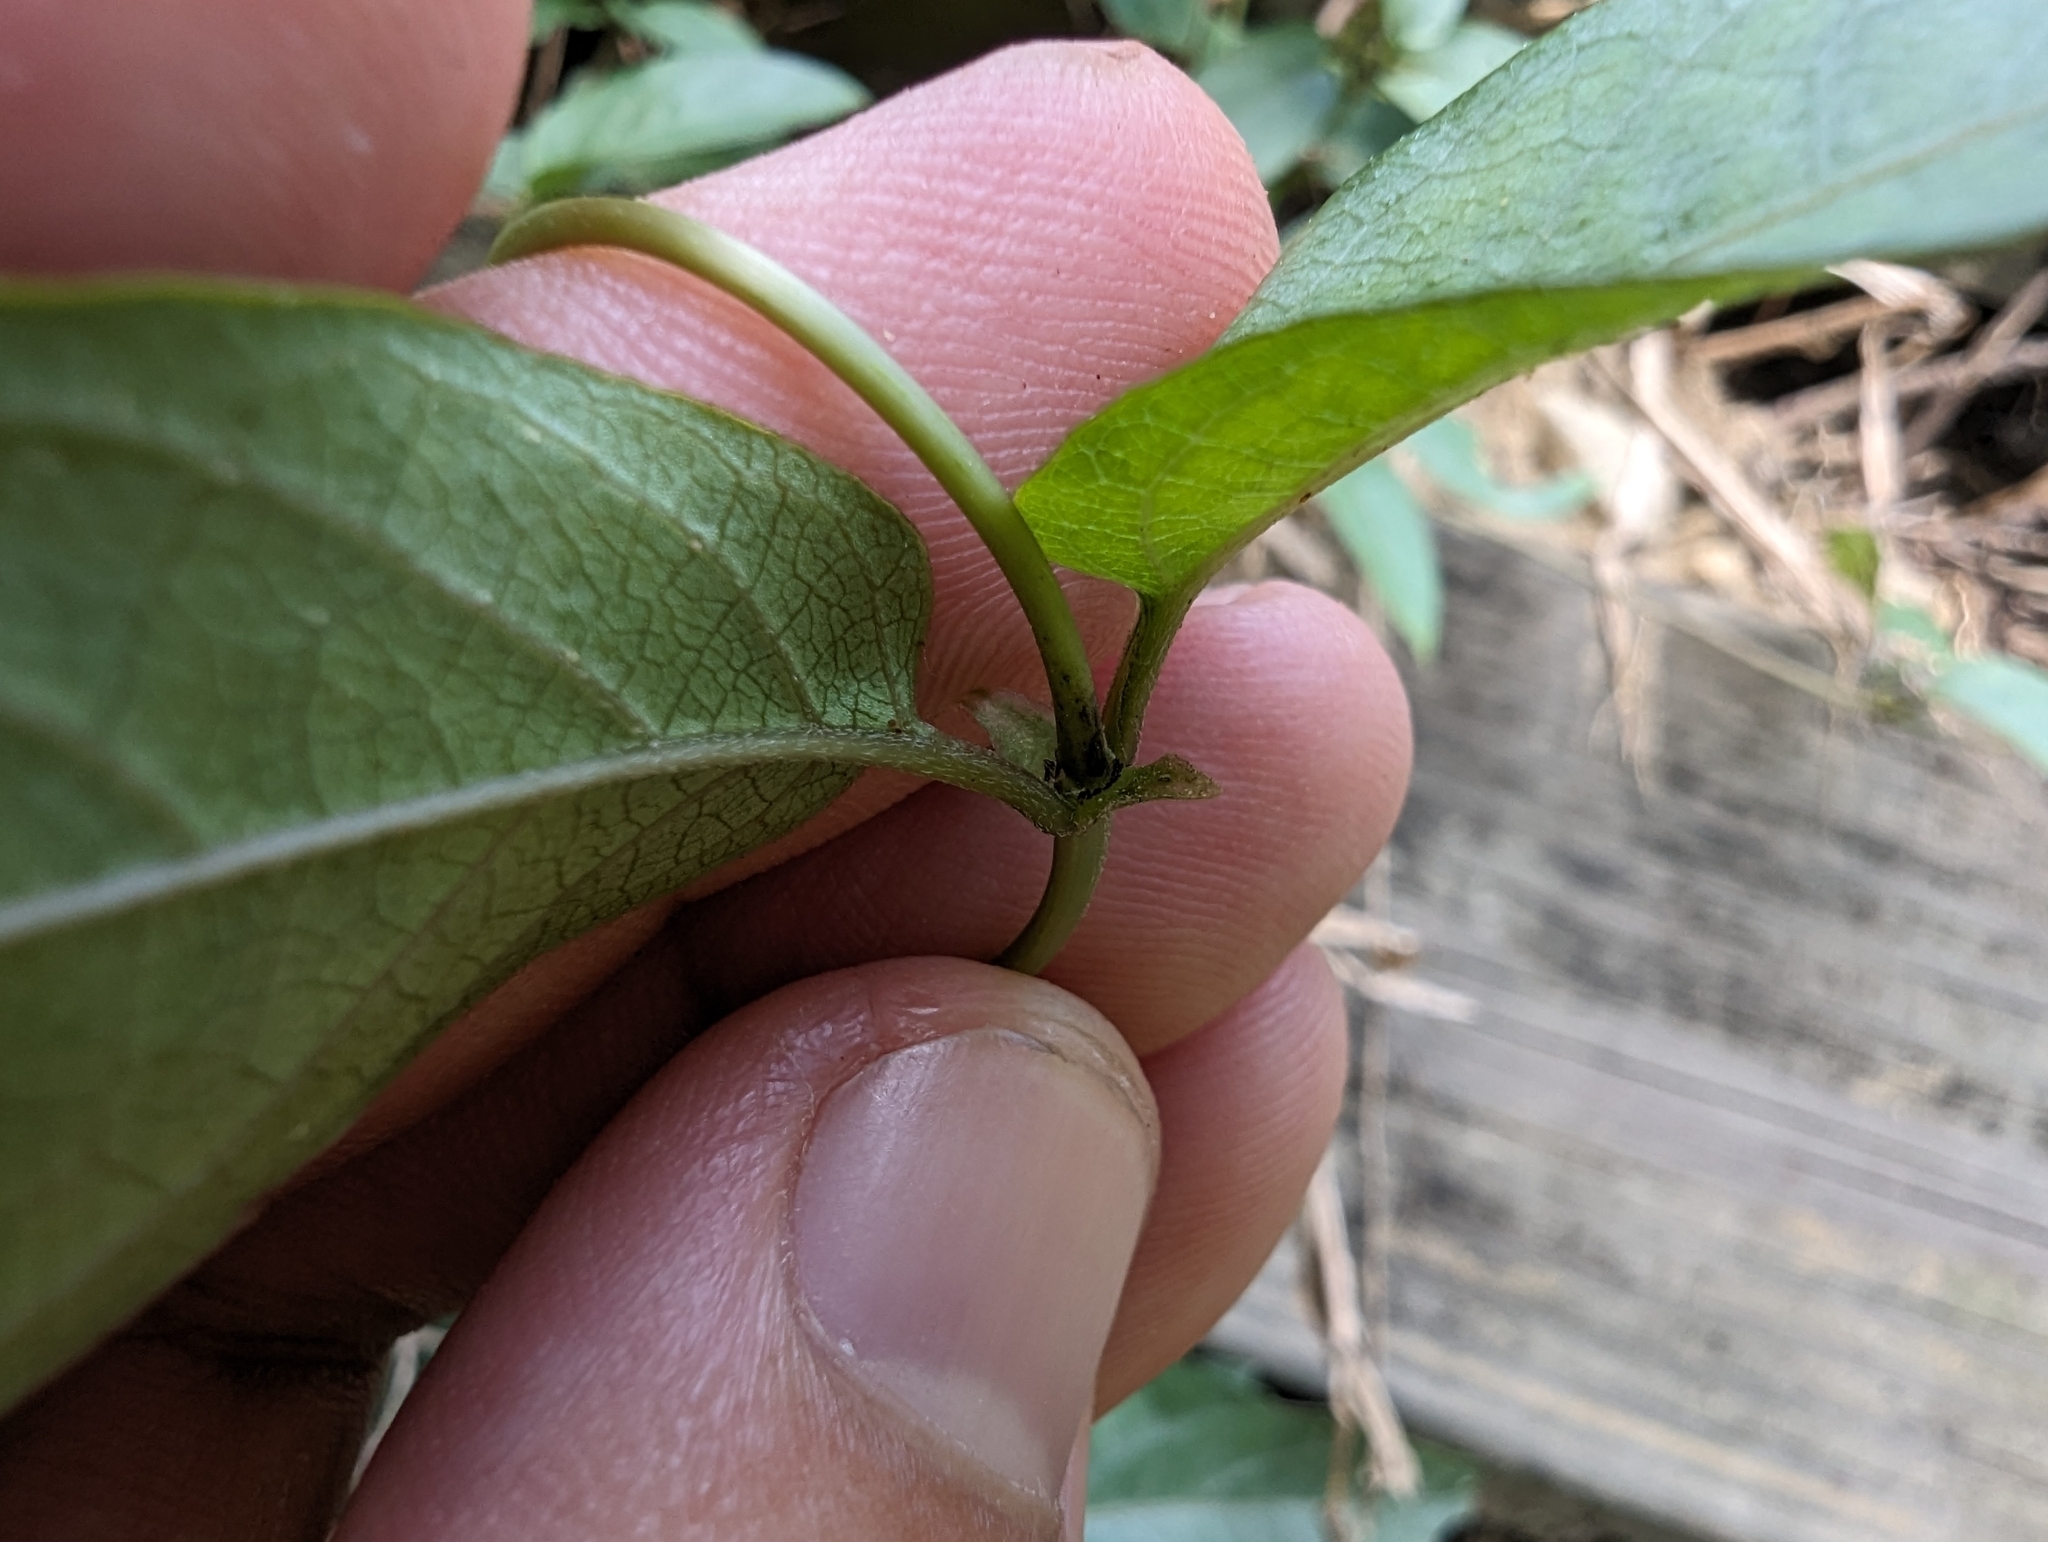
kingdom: Plantae
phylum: Tracheophyta
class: Magnoliopsida
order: Gentianales
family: Rubiaceae
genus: Paederia
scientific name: Paederia foetida
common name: Stinkvine
